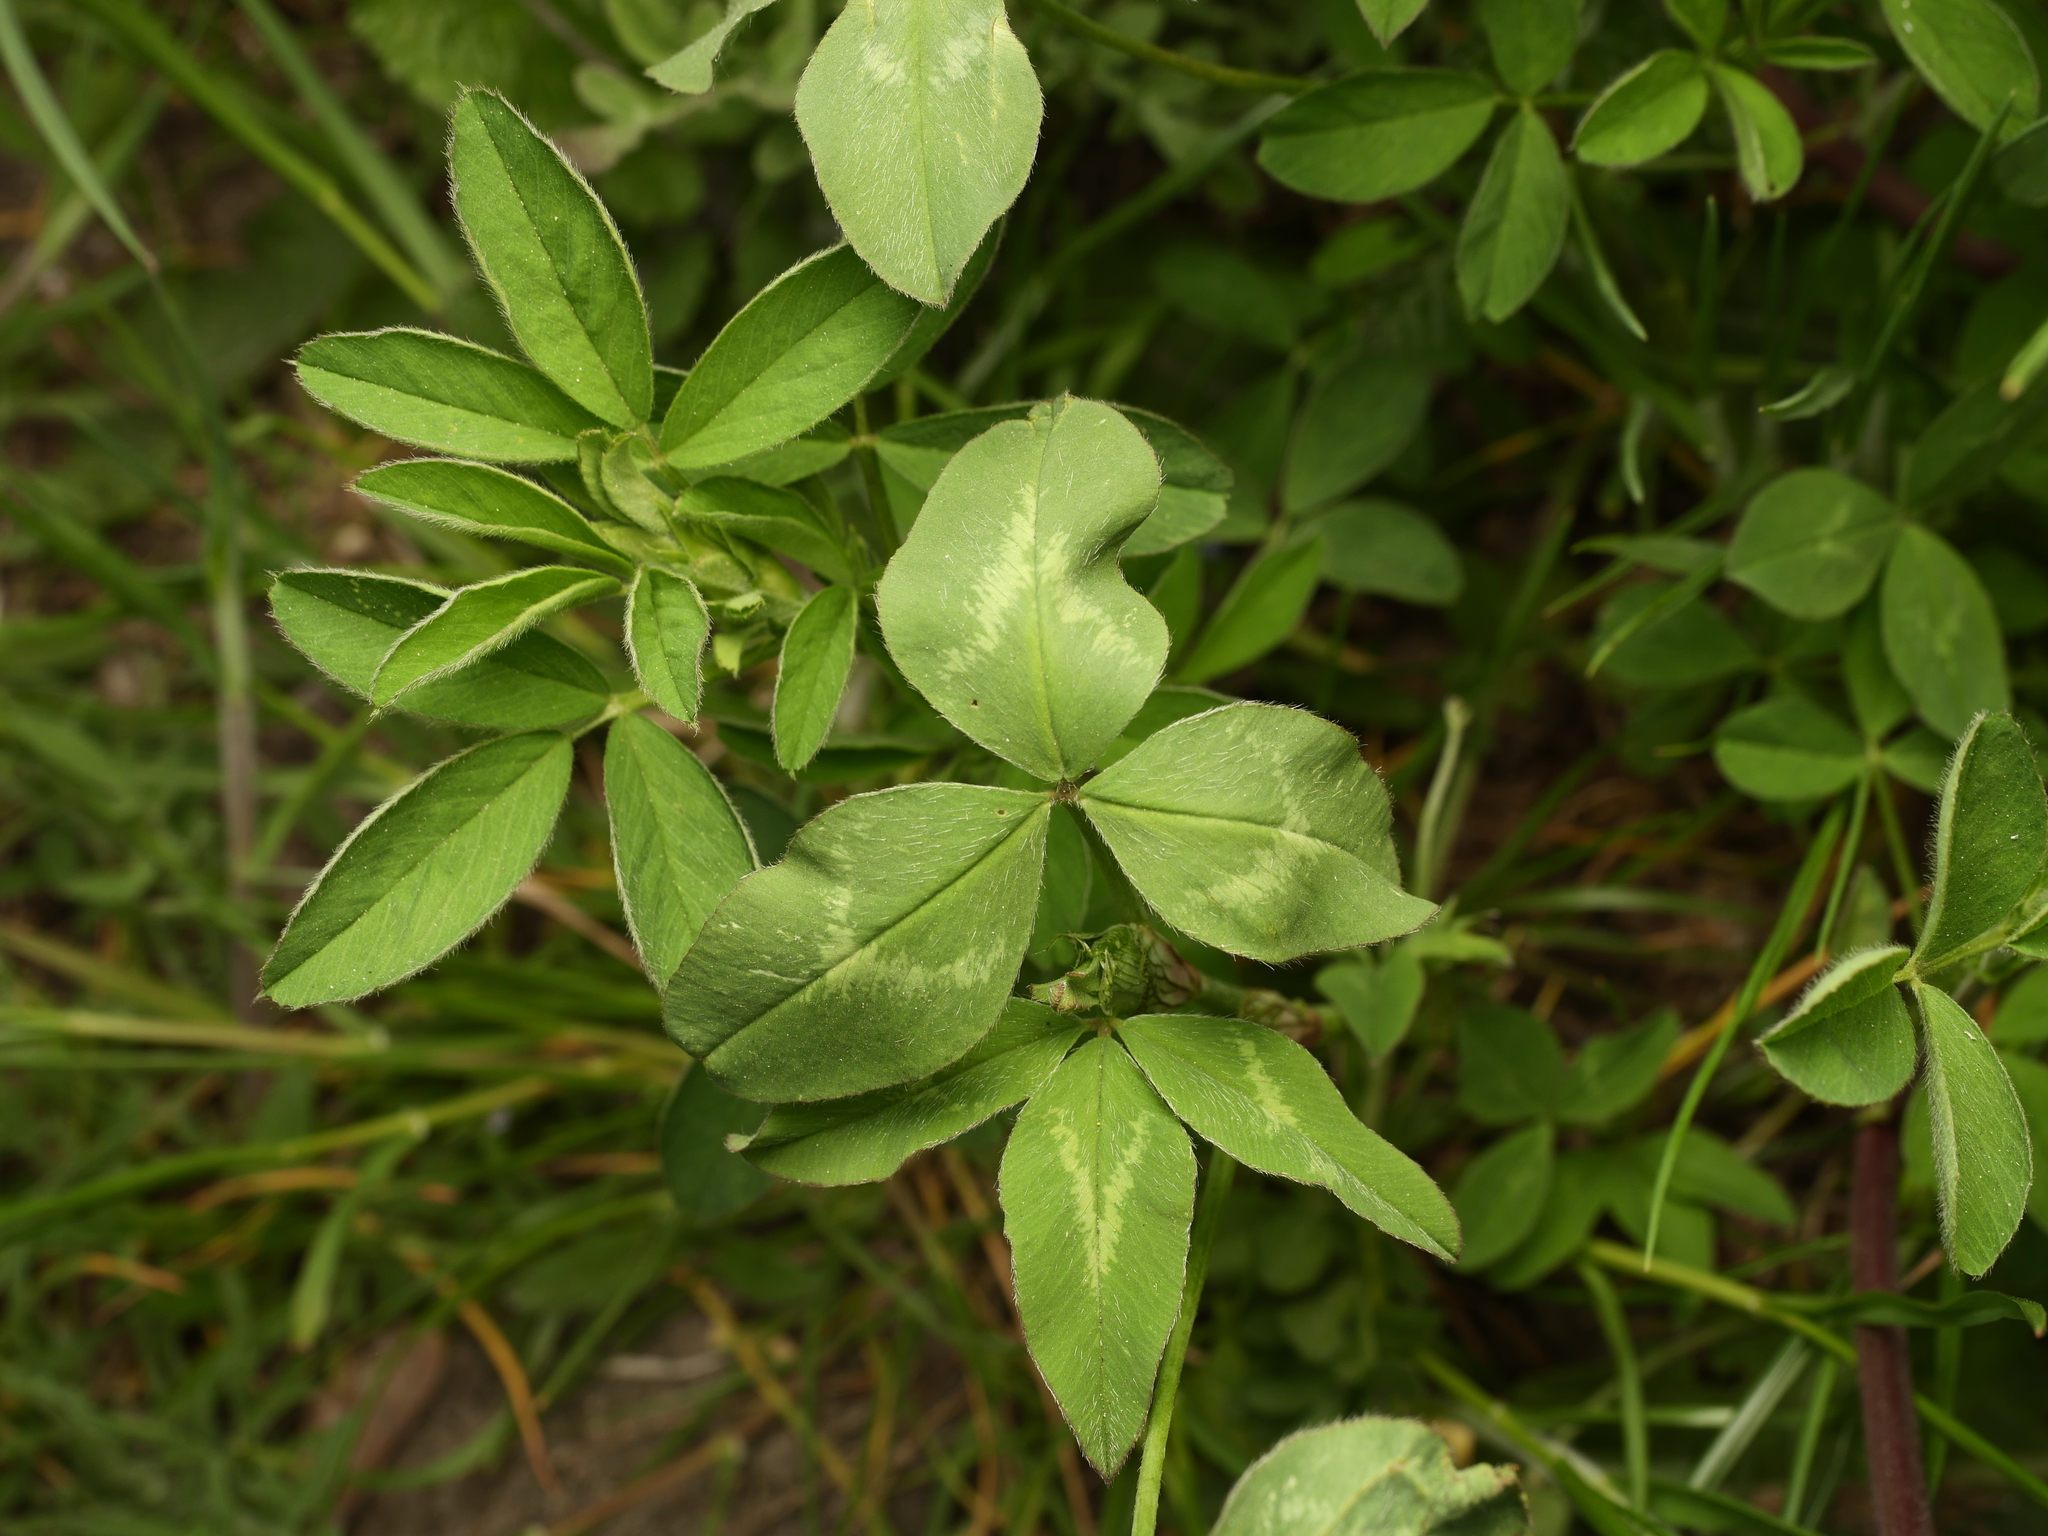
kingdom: Plantae
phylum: Tracheophyta
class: Magnoliopsida
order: Fabales
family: Fabaceae
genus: Trifolium
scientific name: Trifolium pratense
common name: Red clover
